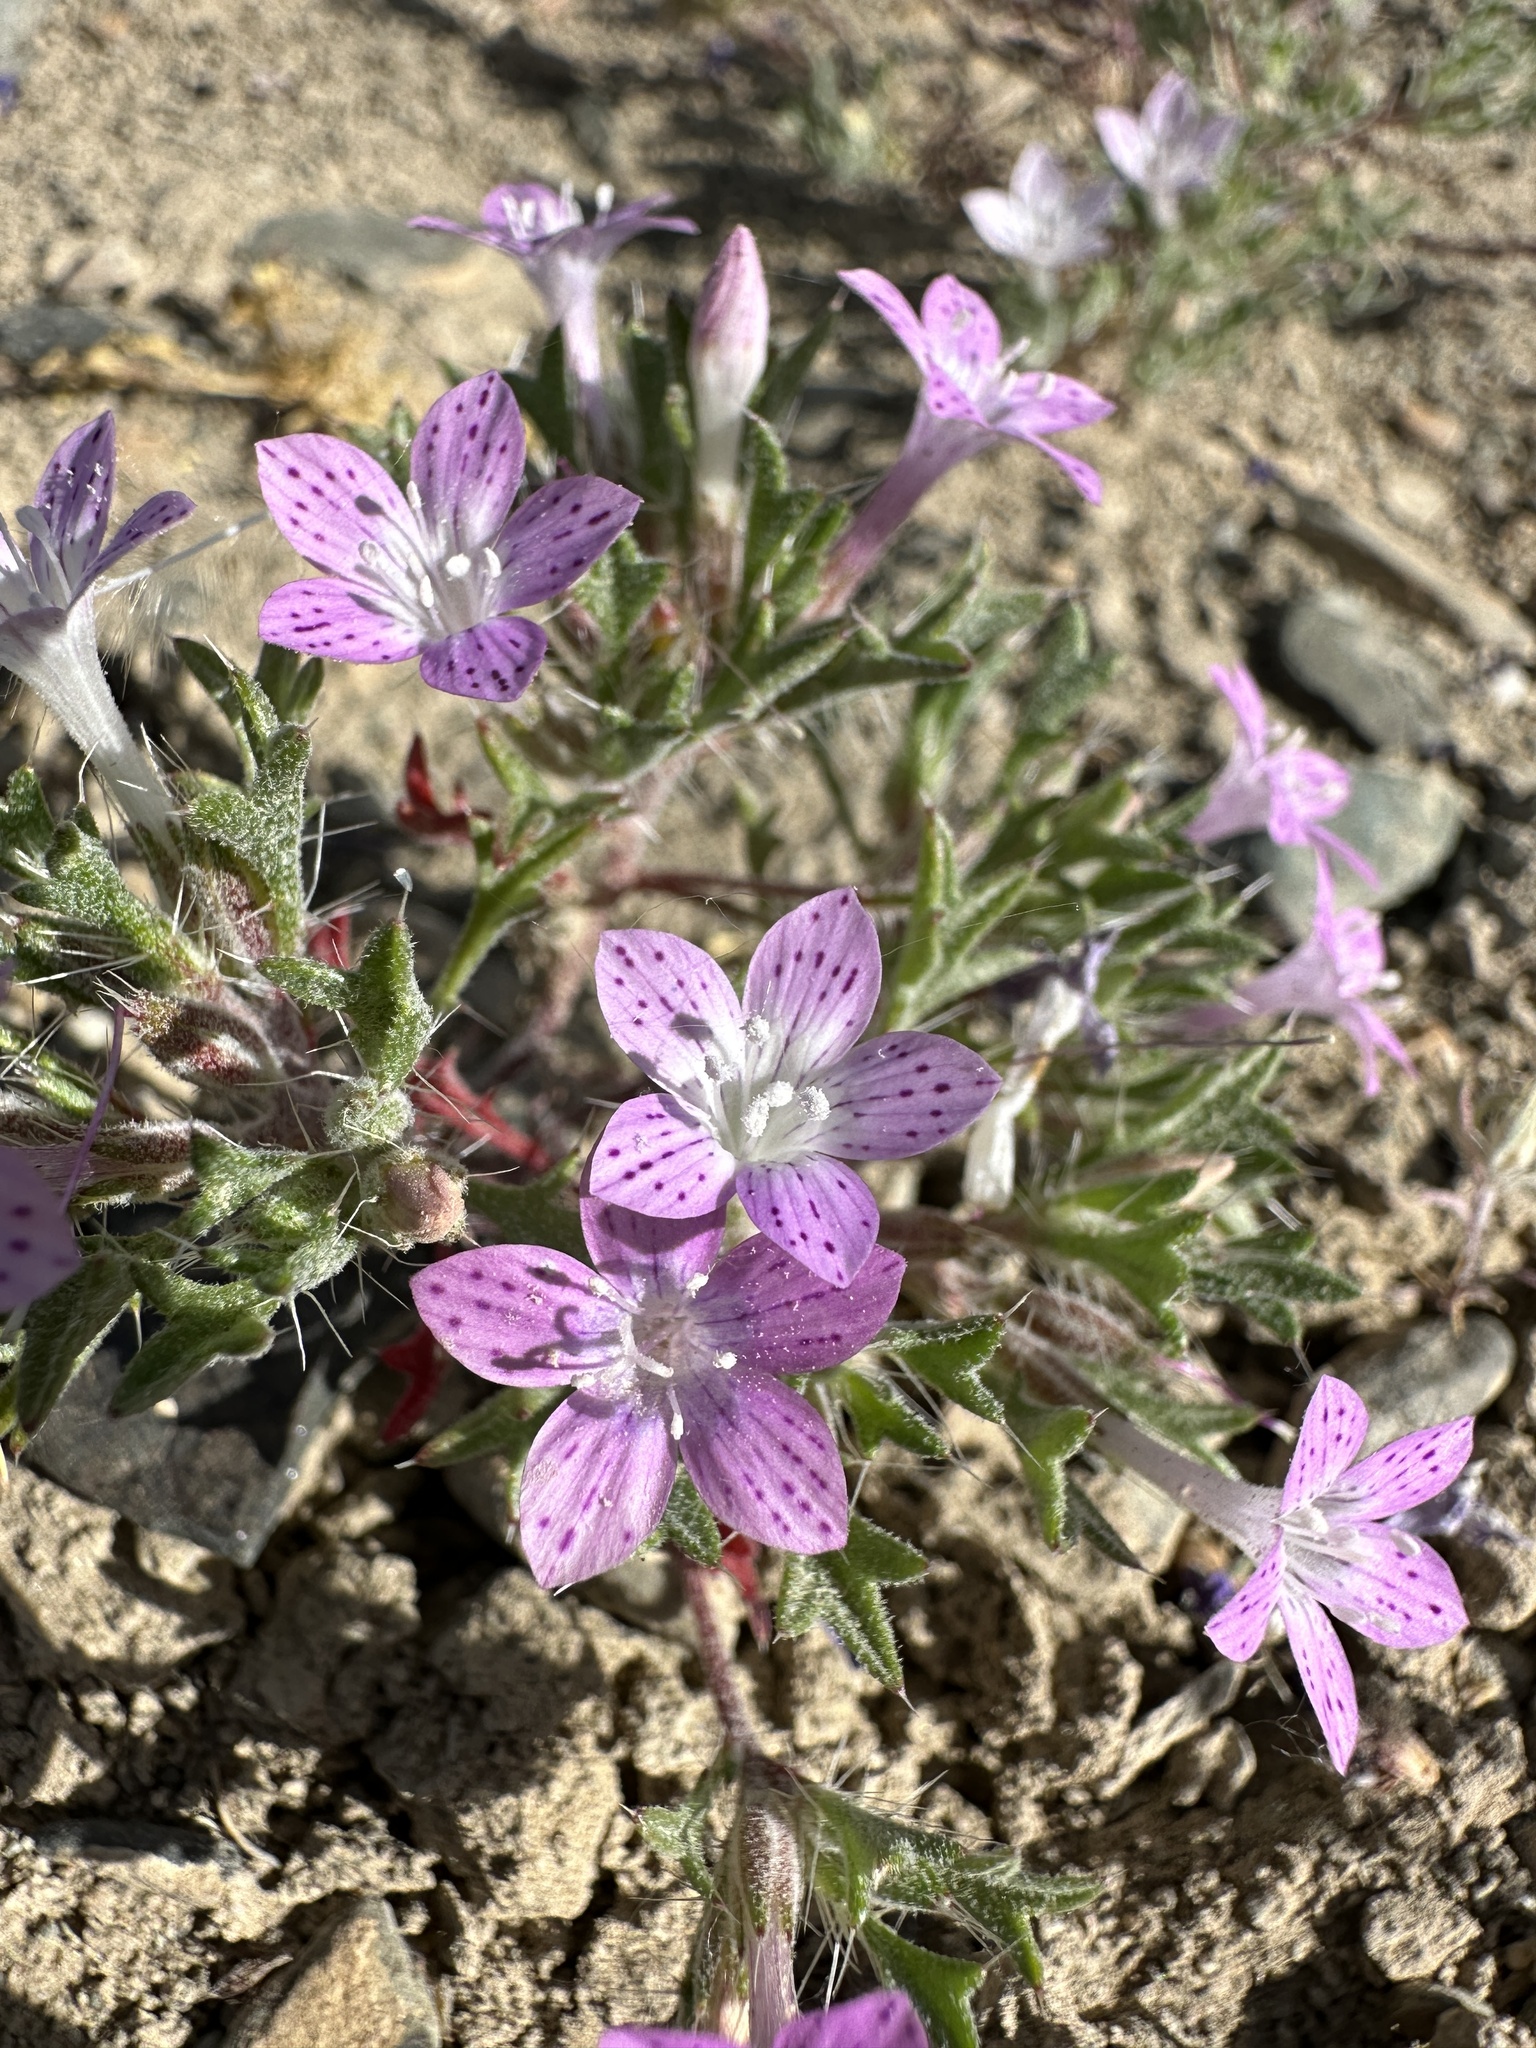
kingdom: Plantae
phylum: Tracheophyta
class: Magnoliopsida
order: Ericales
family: Polemoniaceae
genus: Langloisia
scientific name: Langloisia setosissima
